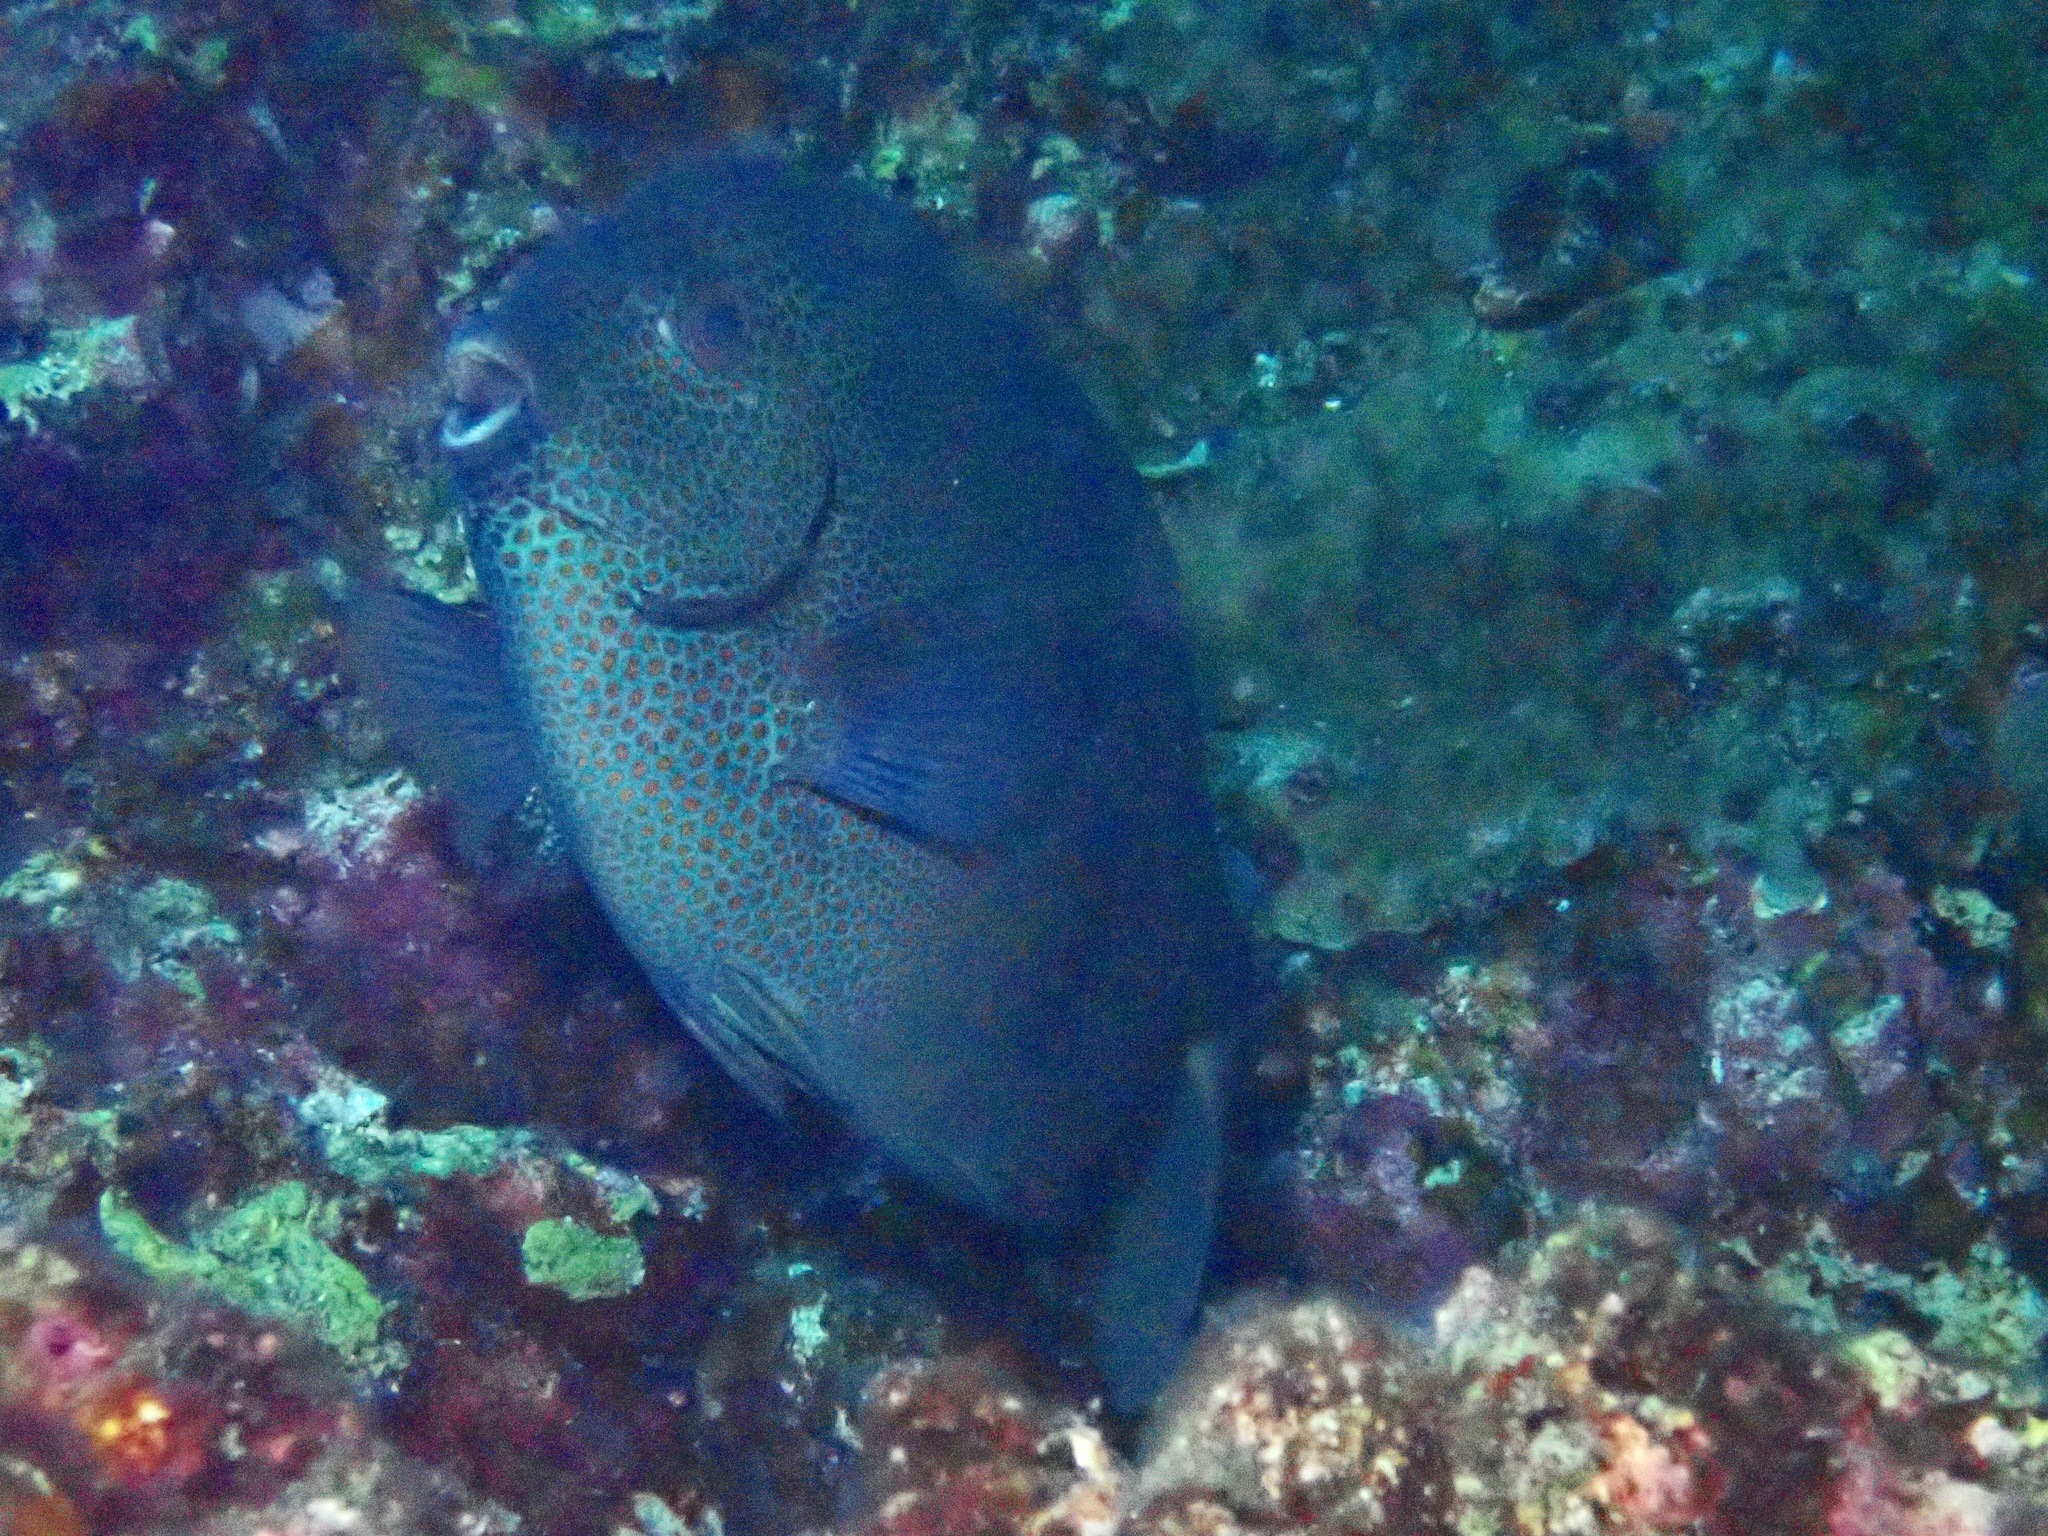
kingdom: Animalia
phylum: Chordata
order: Perciformes
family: Siganidae
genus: Siganus
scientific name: Siganus punctatus
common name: Gold-spotted rabbitfish
